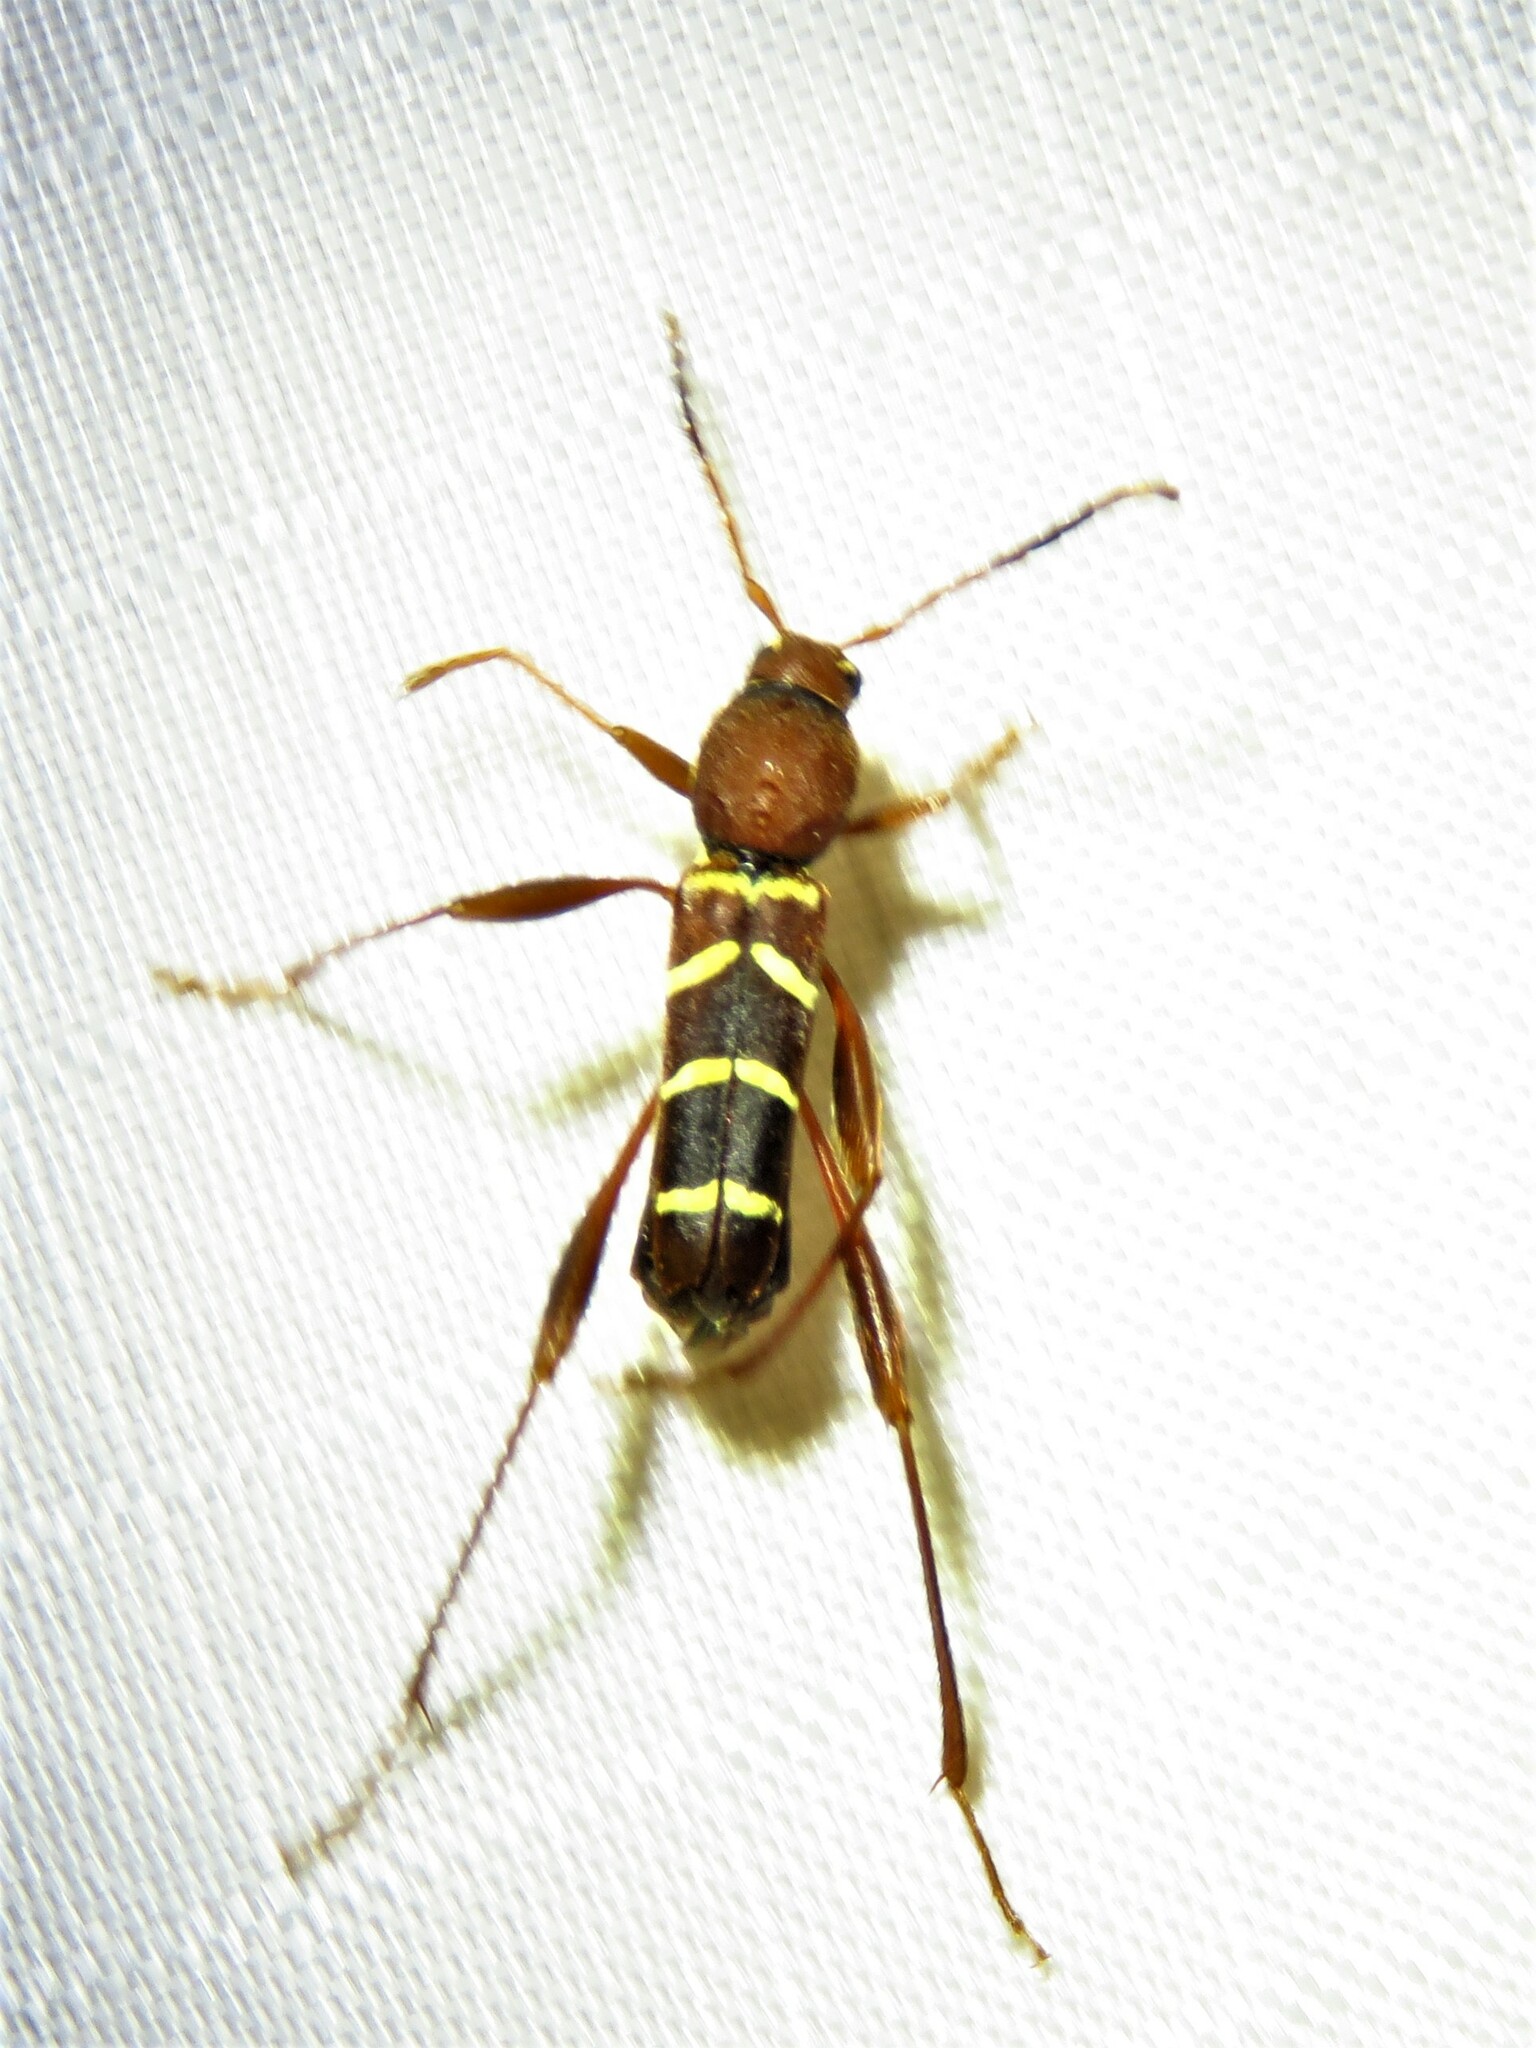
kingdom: Animalia
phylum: Arthropoda
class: Insecta
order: Coleoptera
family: Cerambycidae
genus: Neoclytus
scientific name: Neoclytus acuminatus
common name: Read-headed ash borer
